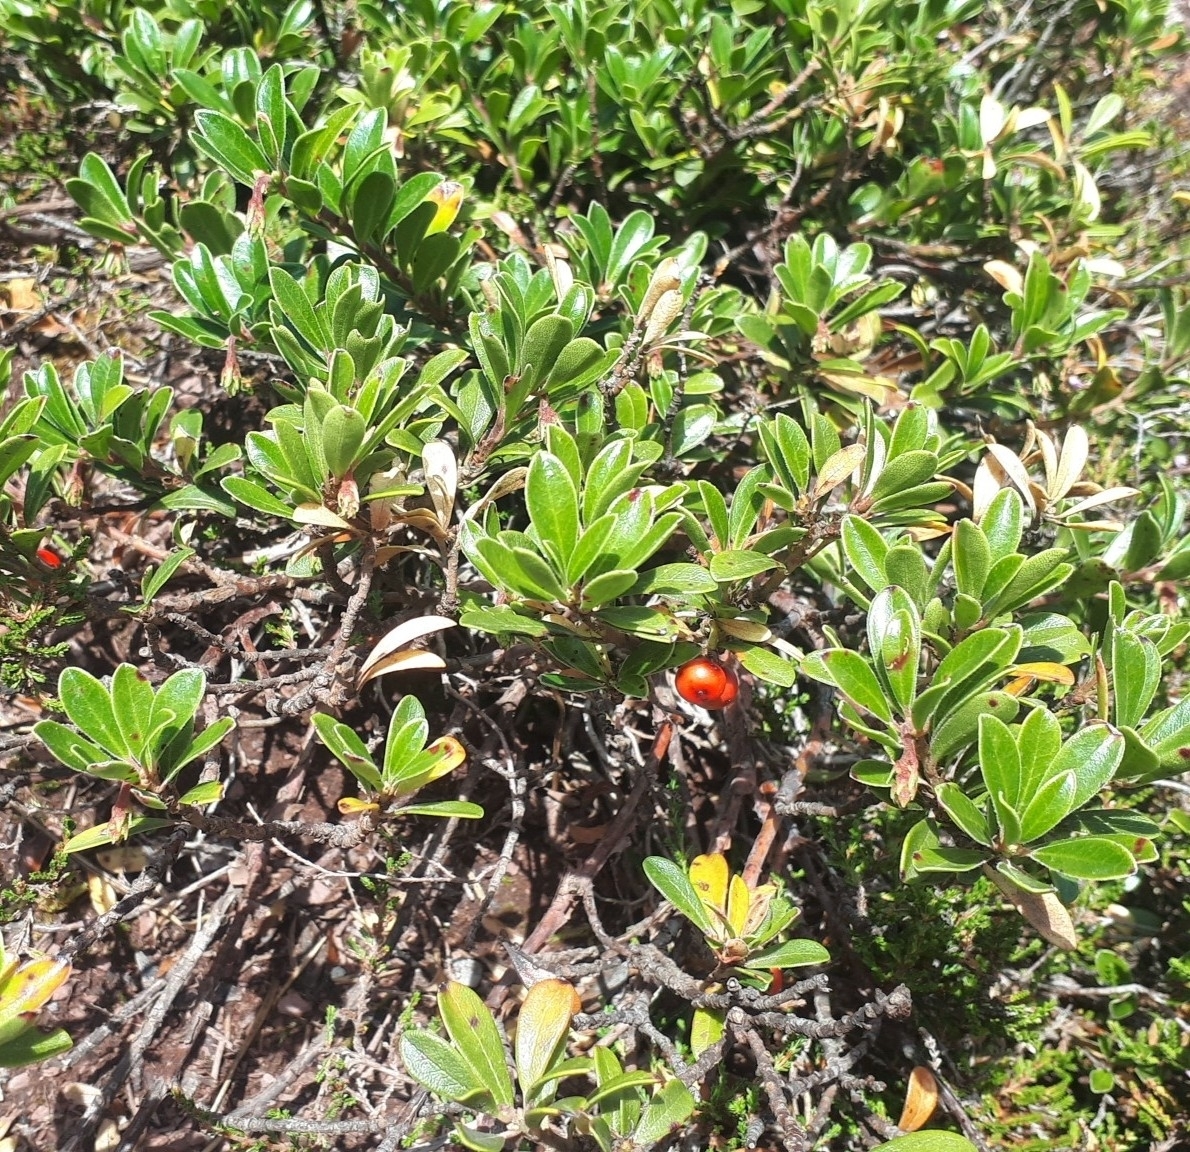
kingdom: Plantae
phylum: Tracheophyta
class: Magnoliopsida
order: Ericales
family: Ericaceae
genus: Arctostaphylos
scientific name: Arctostaphylos uva-ursi
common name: Bearberry
